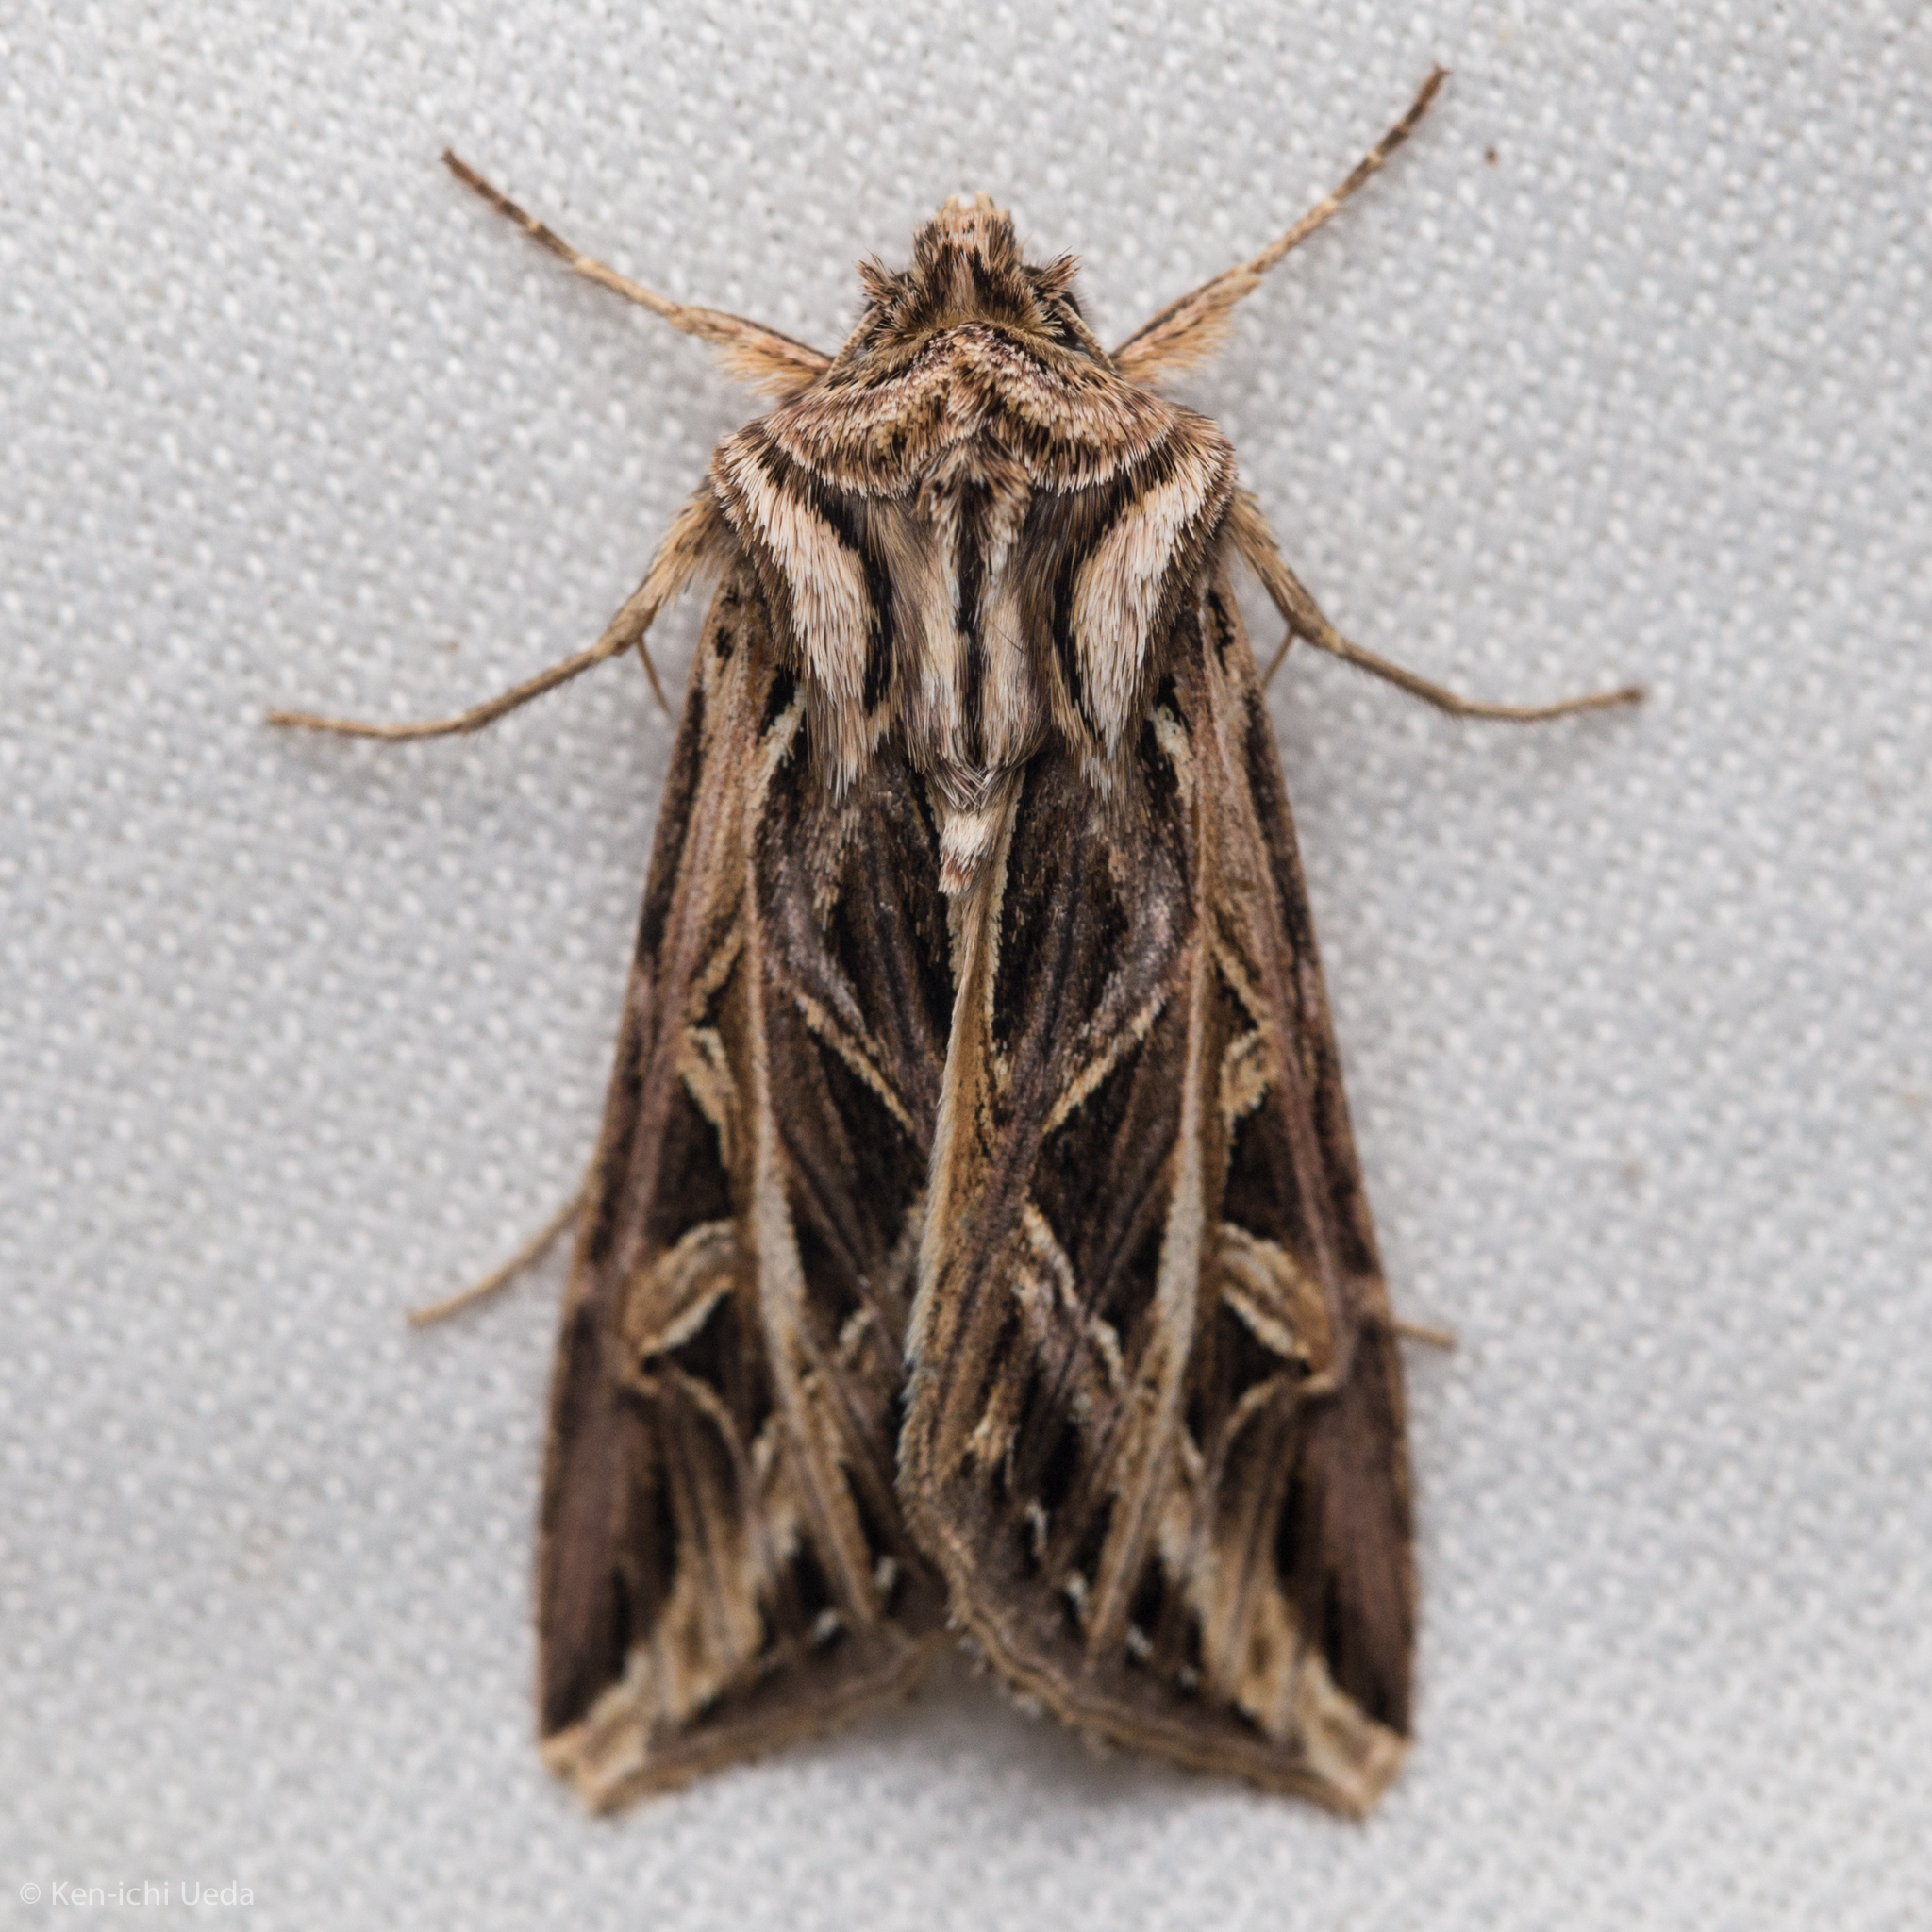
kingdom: Animalia
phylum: Arthropoda
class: Insecta
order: Lepidoptera
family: Noctuidae
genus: Dargida
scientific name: Dargida procinctus
